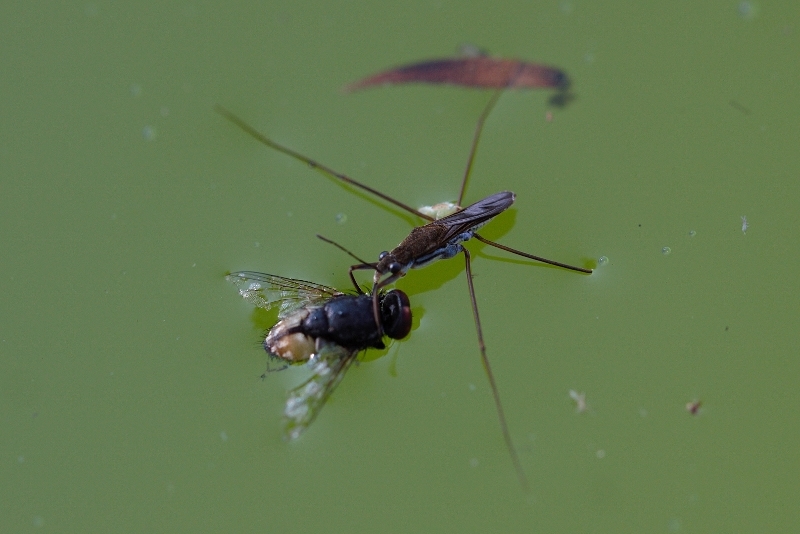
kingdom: Animalia
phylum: Arthropoda
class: Insecta
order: Hemiptera
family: Gerridae
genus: Gerris
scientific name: Gerris swakopensis
